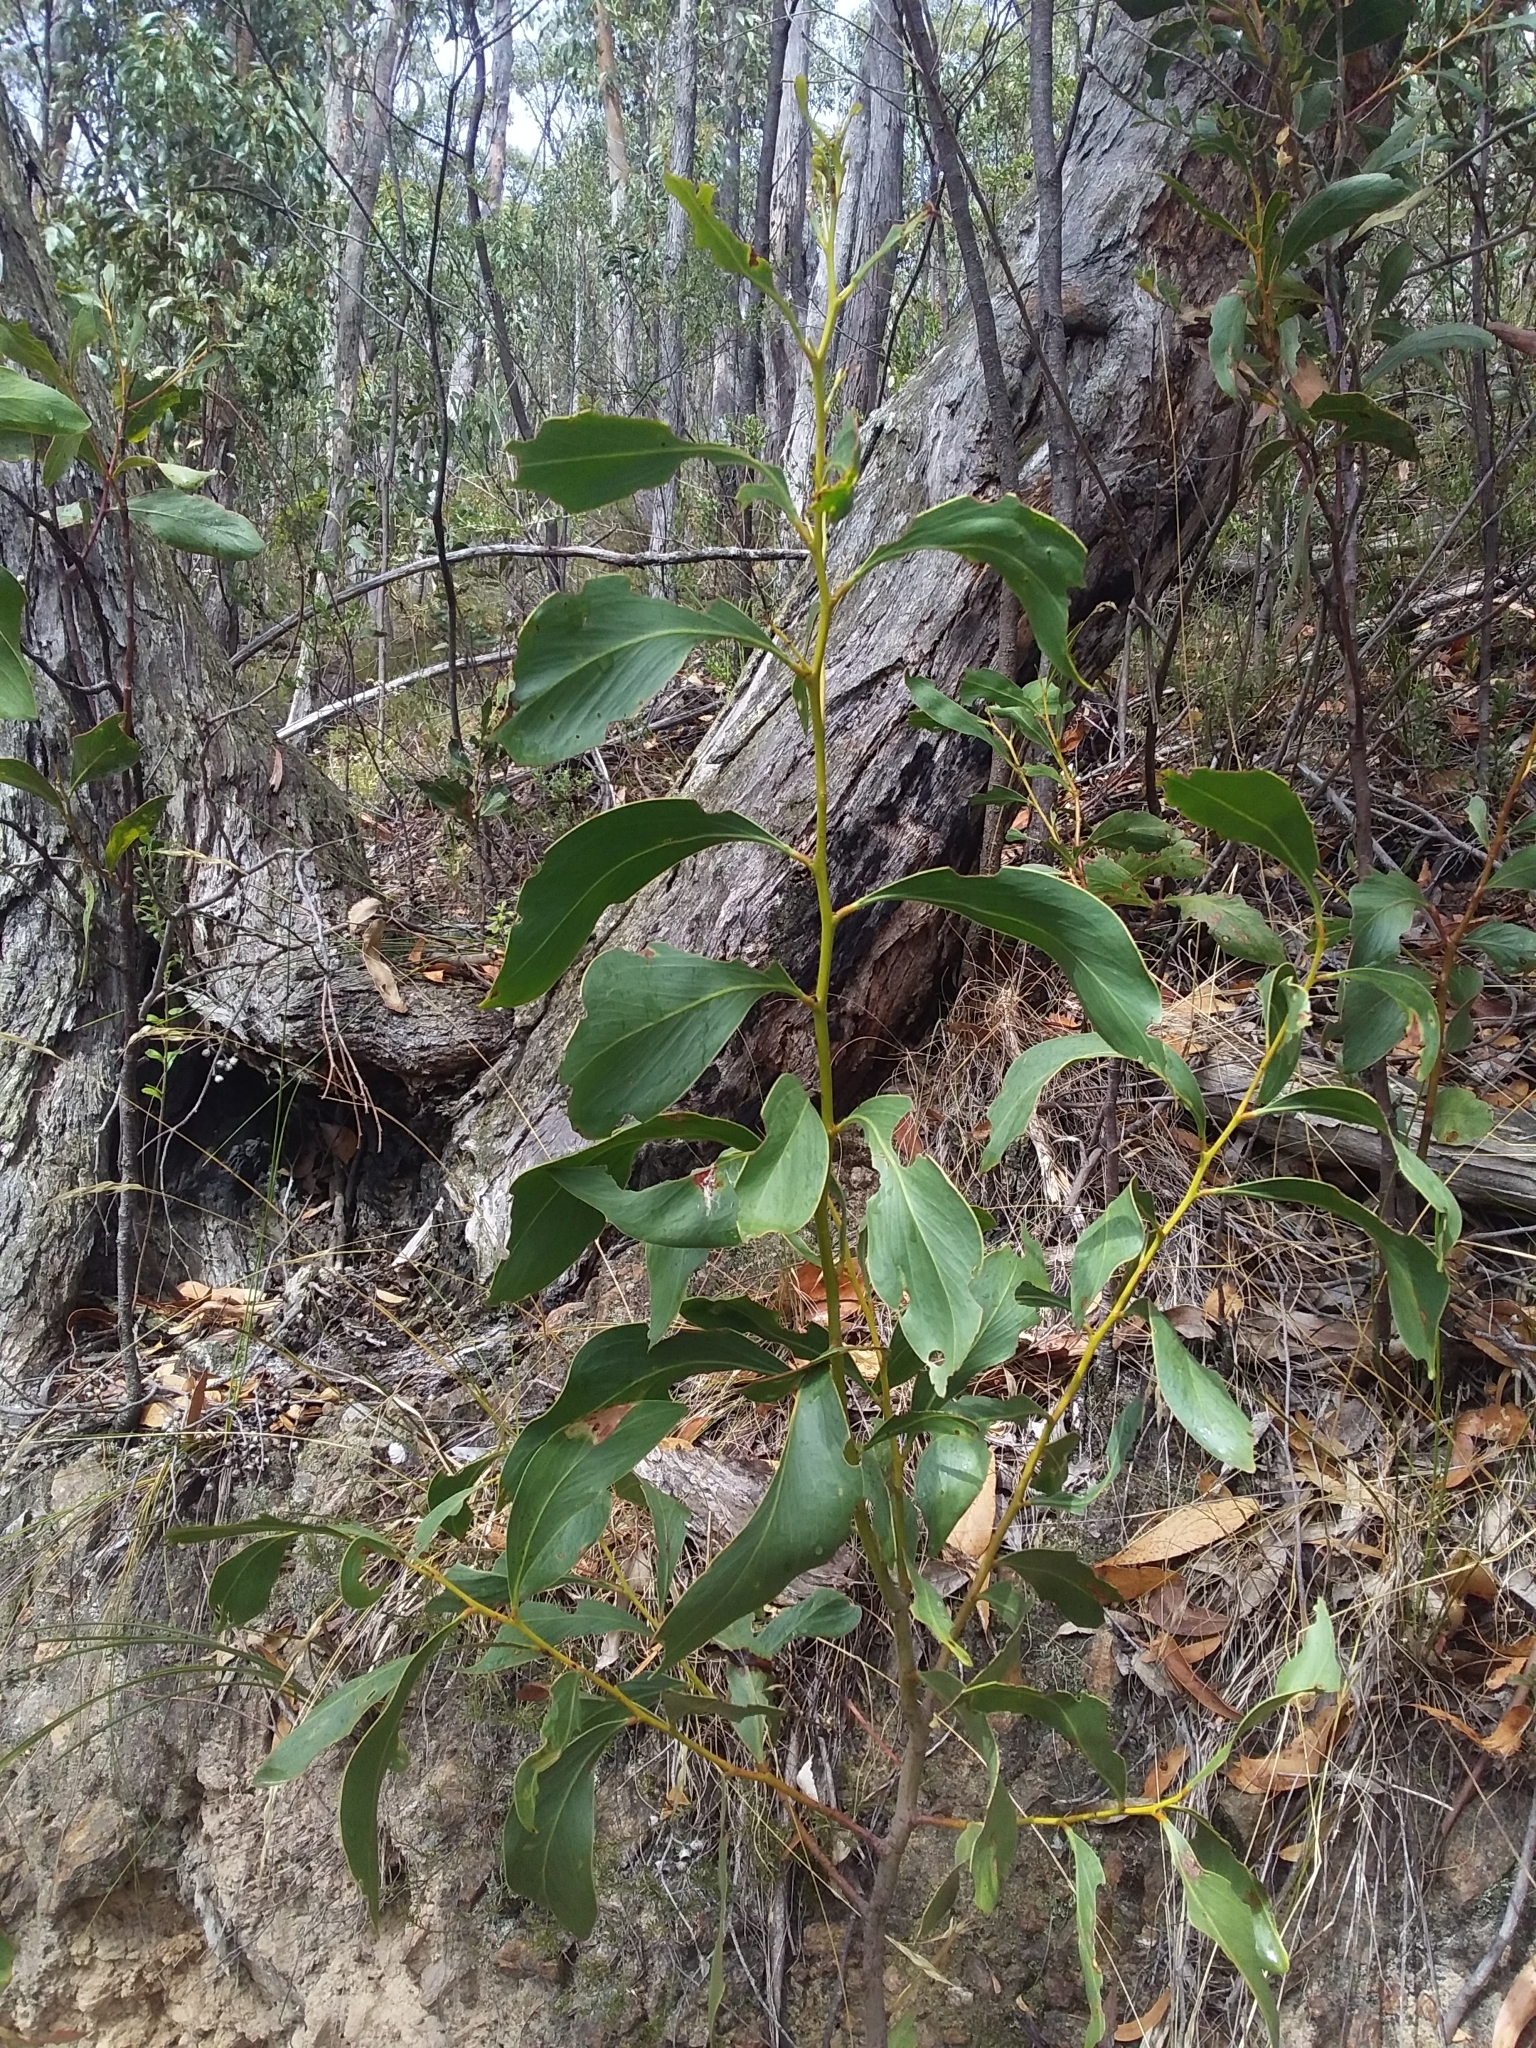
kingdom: Plantae
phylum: Tracheophyta
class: Magnoliopsida
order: Fabales
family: Fabaceae
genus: Acacia
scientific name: Acacia pycnantha
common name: Golden wattle
